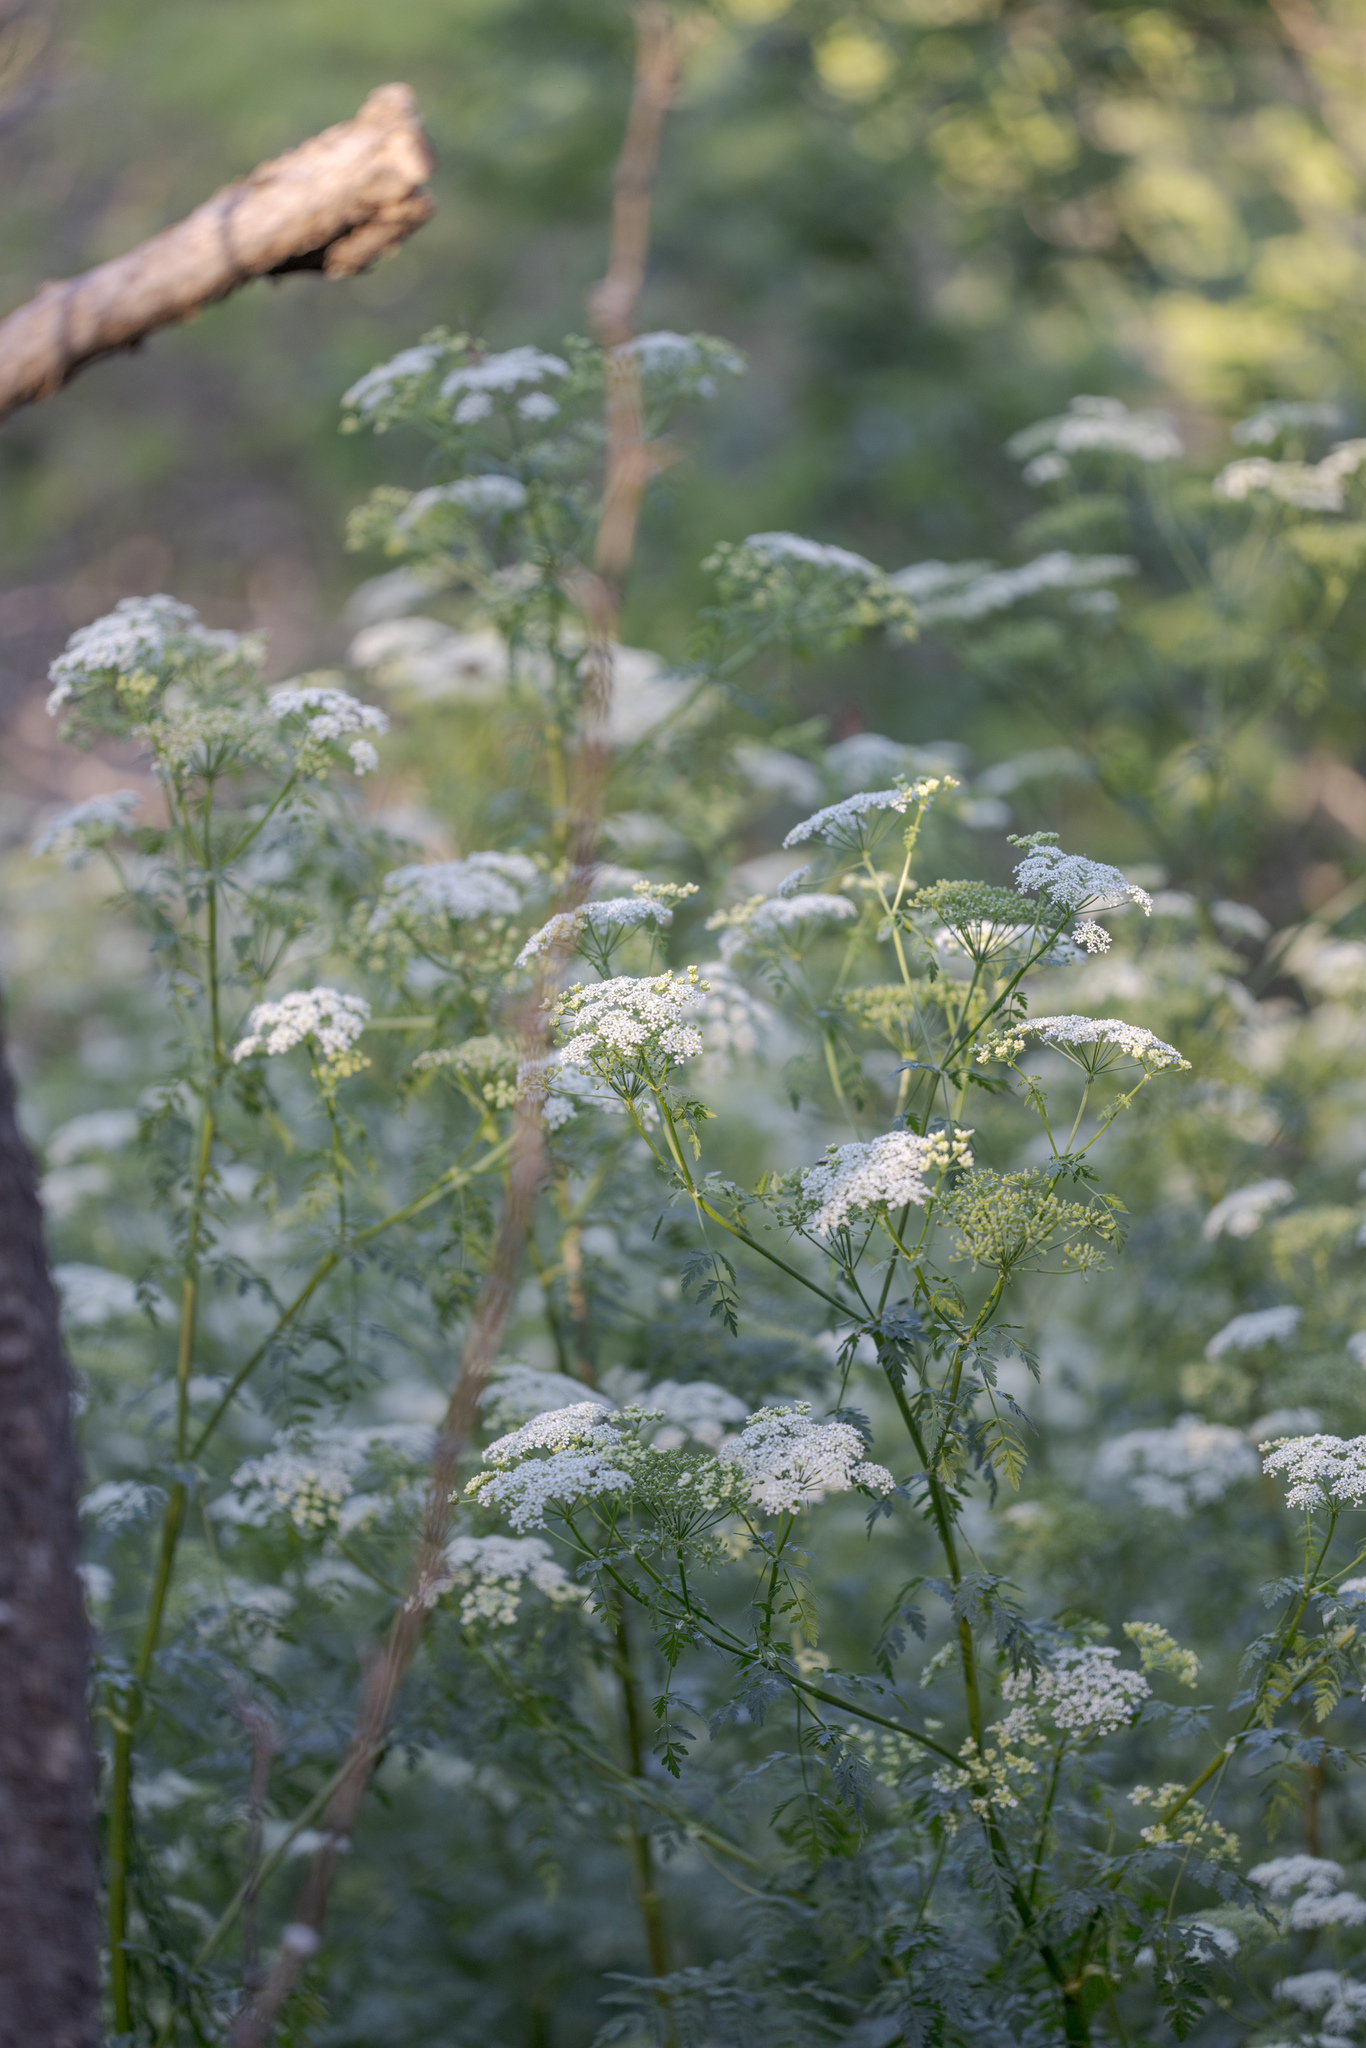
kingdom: Plantae
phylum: Tracheophyta
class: Magnoliopsida
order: Apiales
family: Apiaceae
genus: Conium
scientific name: Conium maculatum
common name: Hemlock
